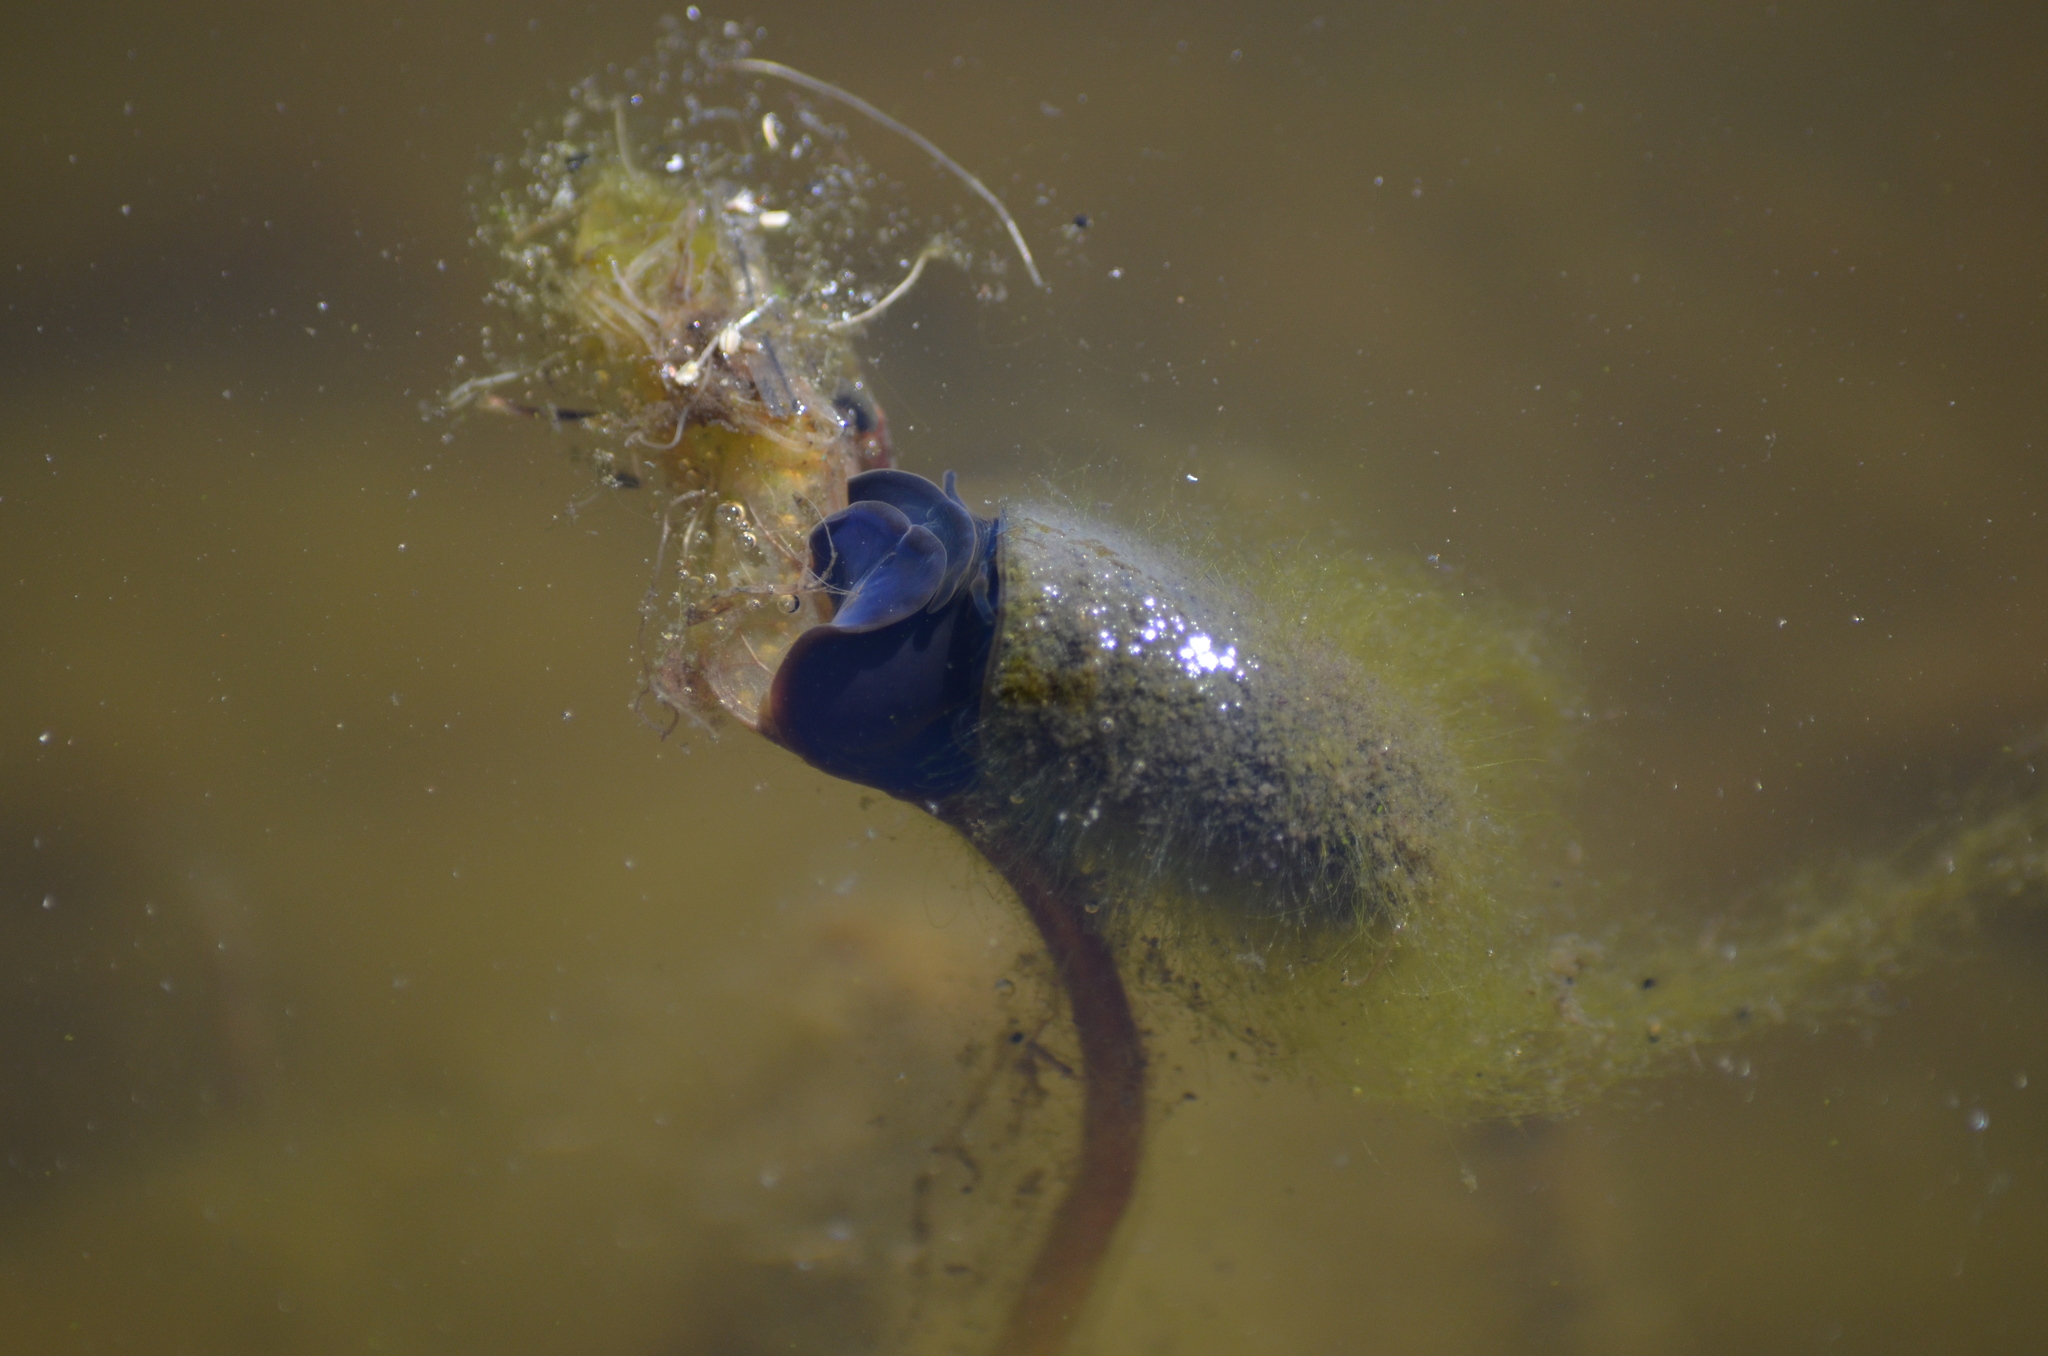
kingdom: Animalia
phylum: Mollusca
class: Gastropoda
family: Planorbidae
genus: Planorbarius
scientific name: Planorbarius corneus
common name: Great ramshorn
